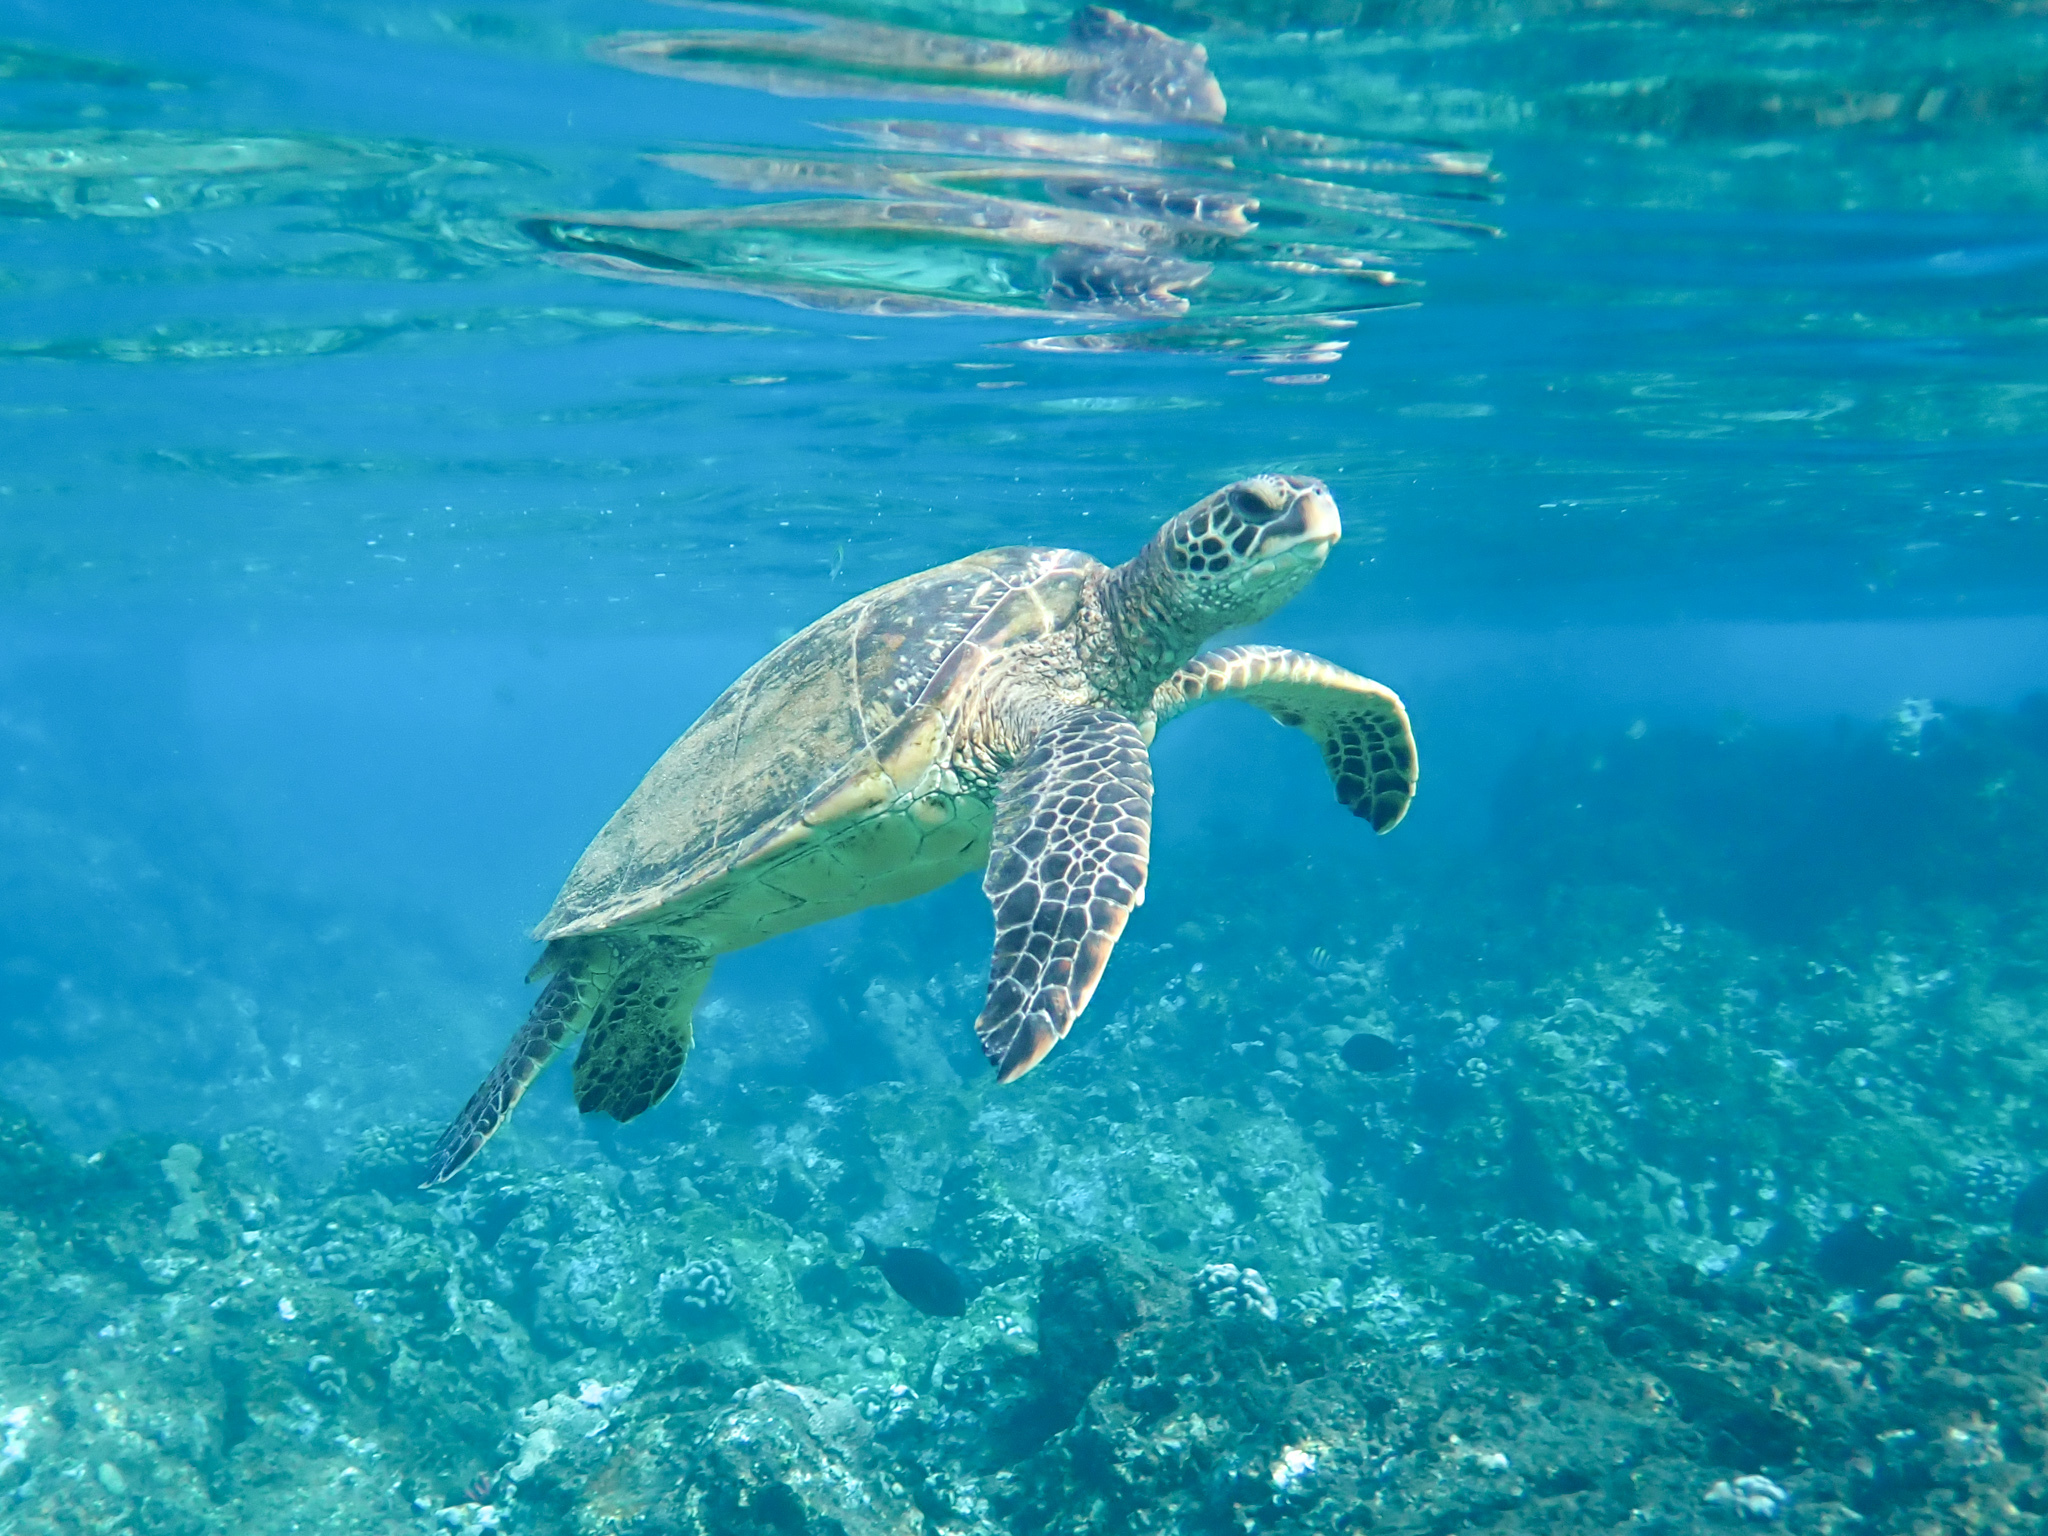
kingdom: Animalia
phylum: Chordata
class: Testudines
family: Cheloniidae
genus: Chelonia
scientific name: Chelonia mydas
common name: Green turtle
